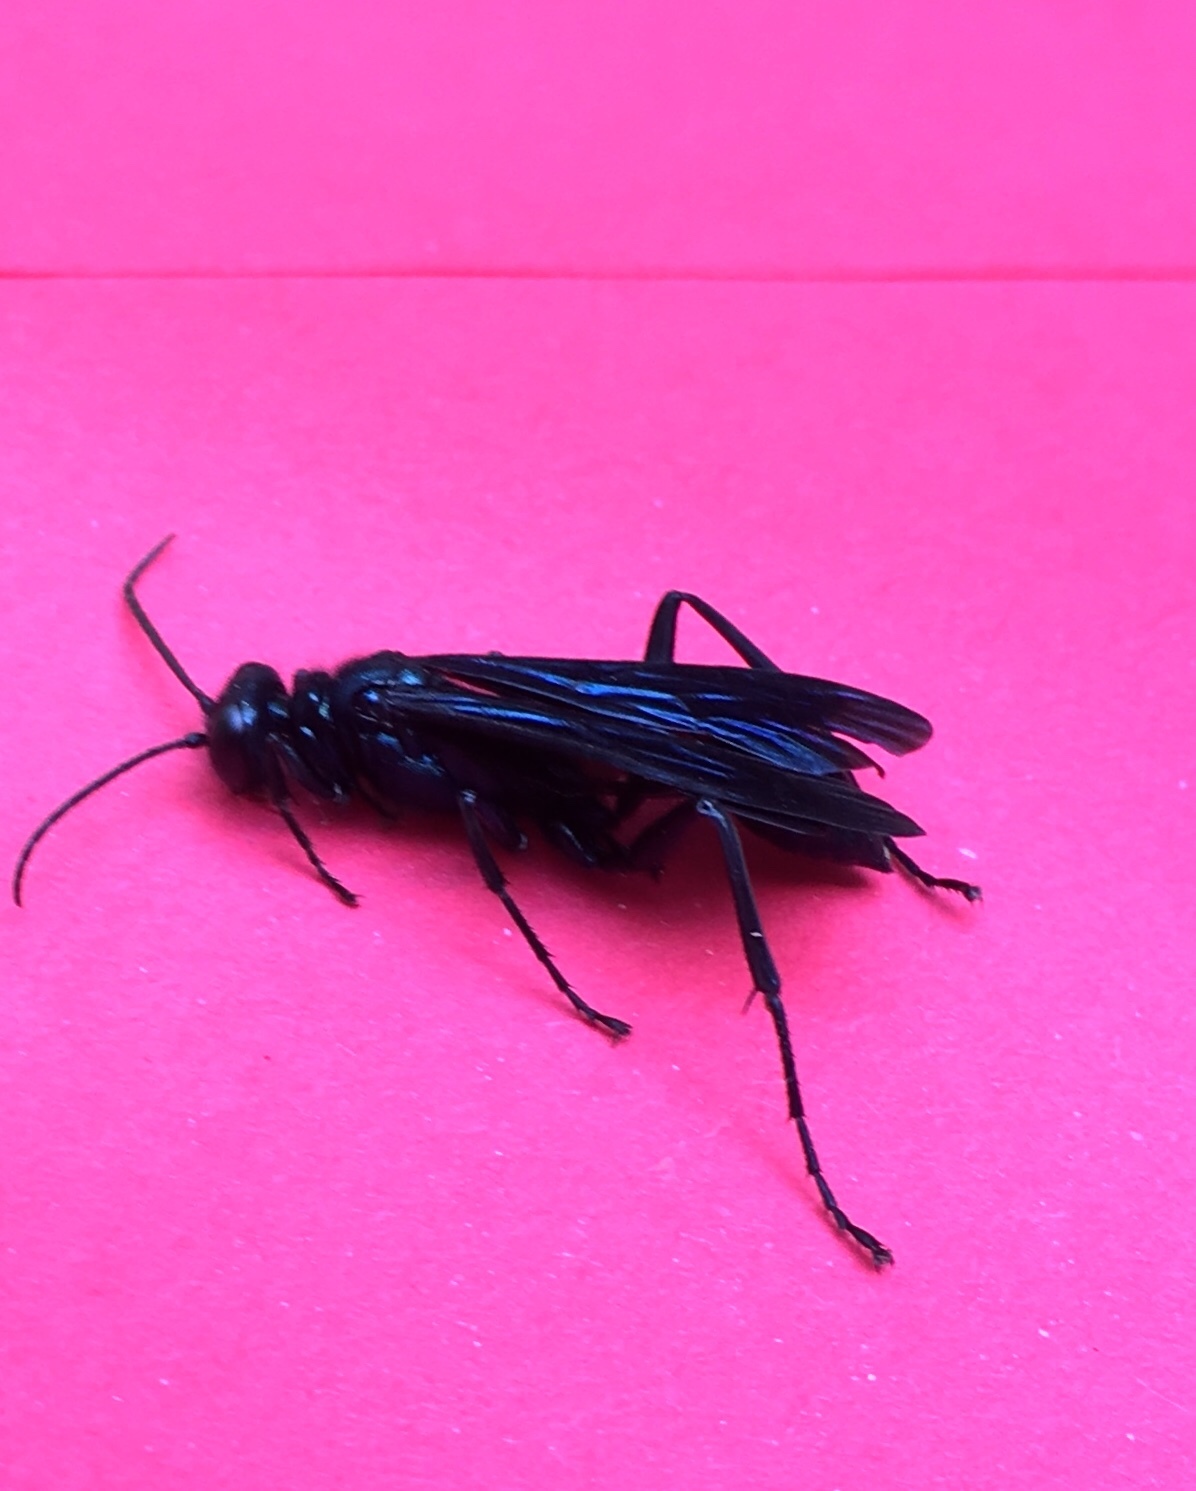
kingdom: Animalia
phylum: Arthropoda
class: Insecta
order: Hymenoptera
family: Sphecidae
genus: Chalybion
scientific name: Chalybion californicum
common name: Mud dauber
